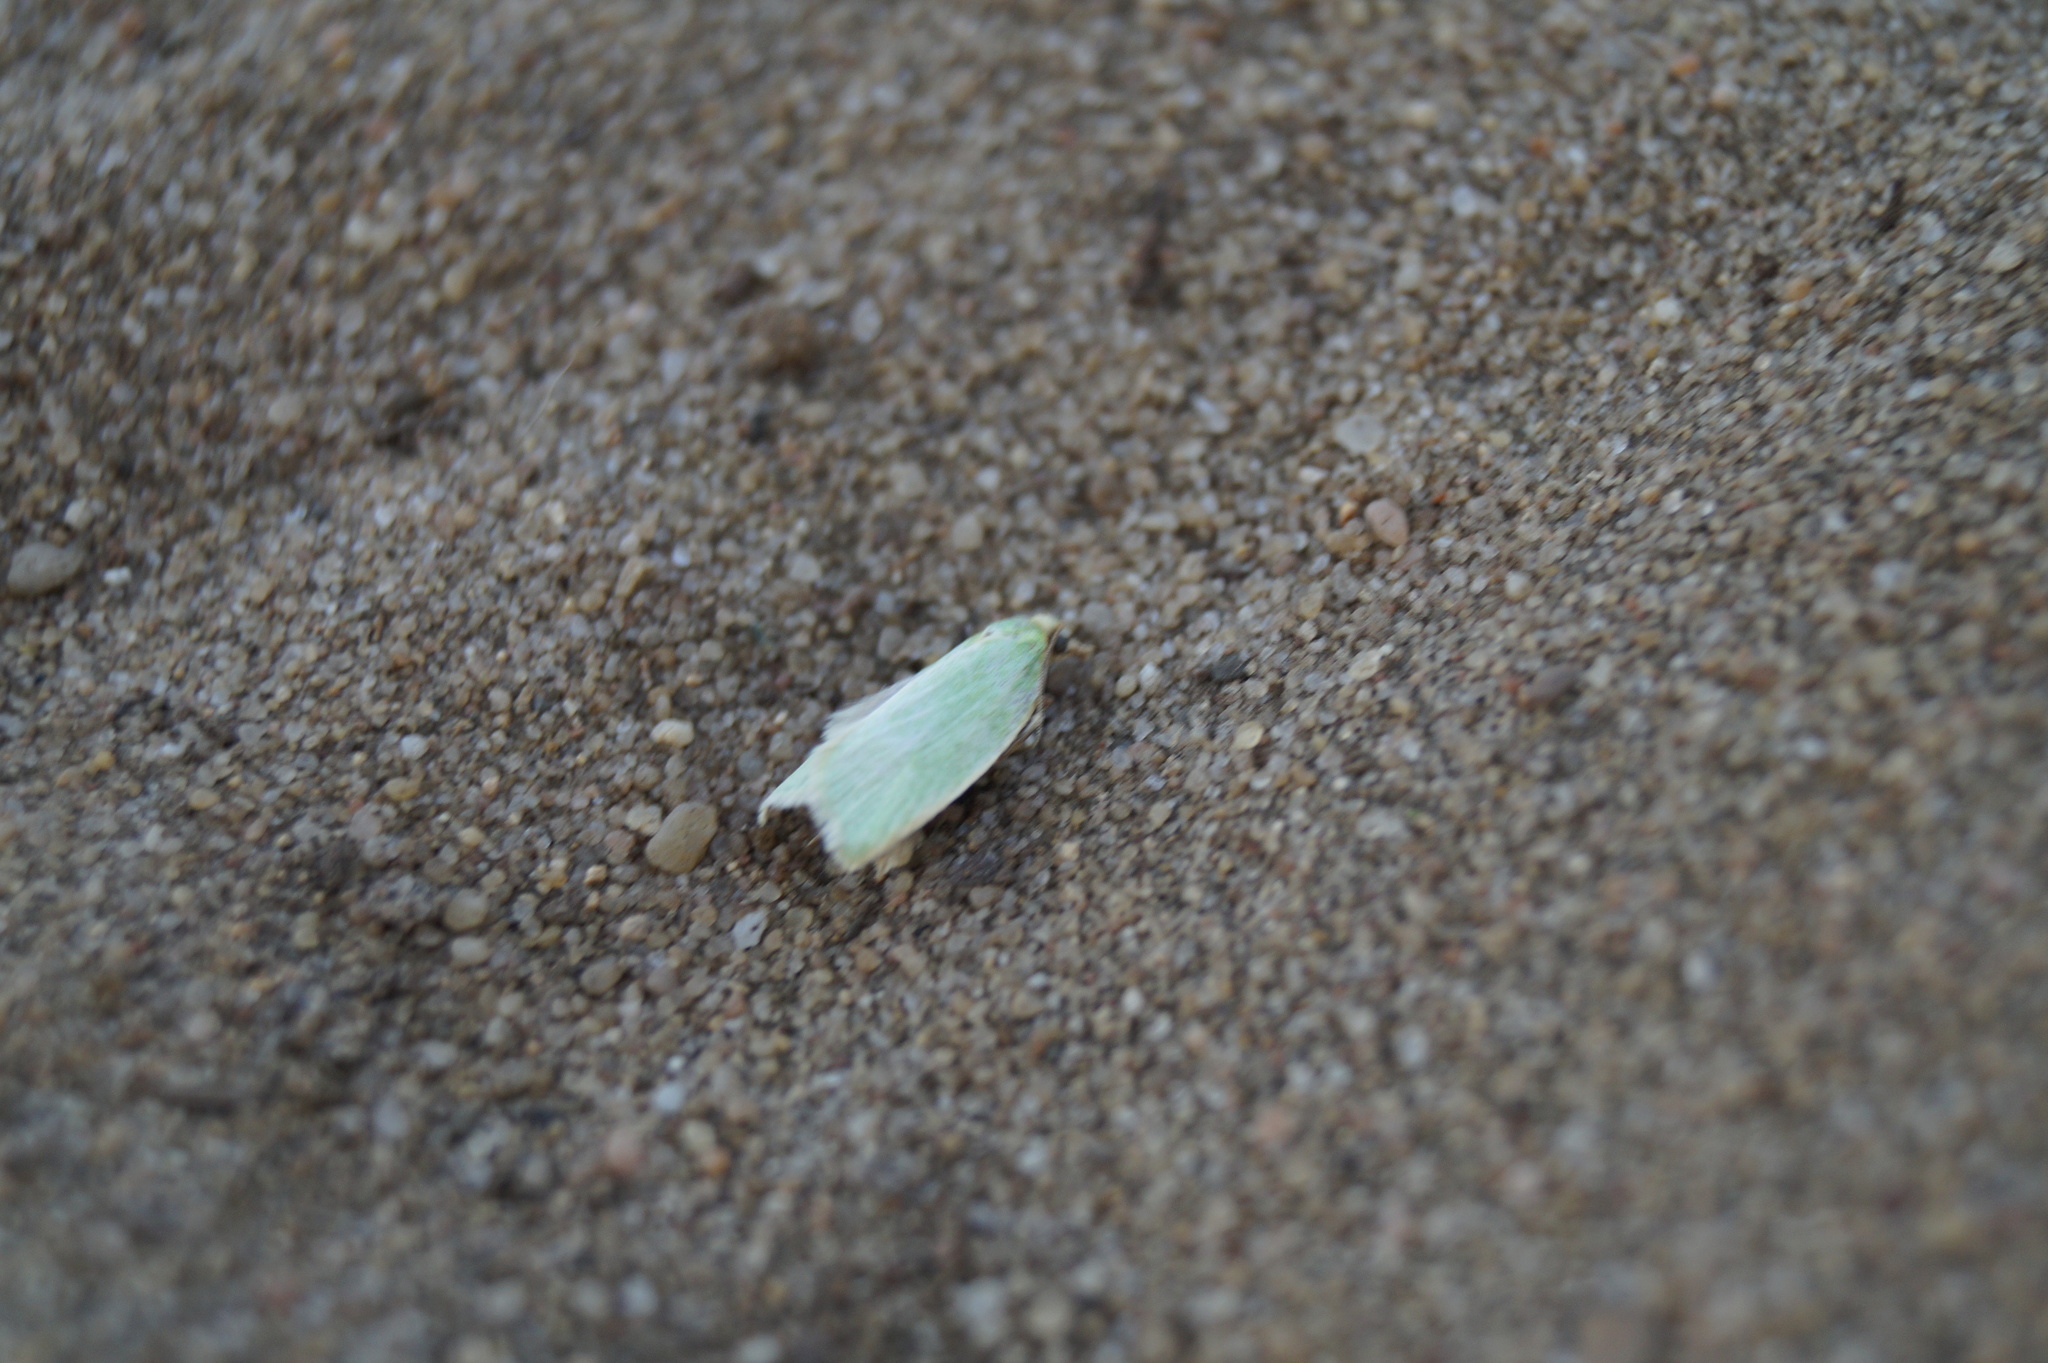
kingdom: Animalia
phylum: Arthropoda
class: Insecta
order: Lepidoptera
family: Tortricidae
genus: Tortrix
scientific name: Tortrix viridana
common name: Green oak tortrix
